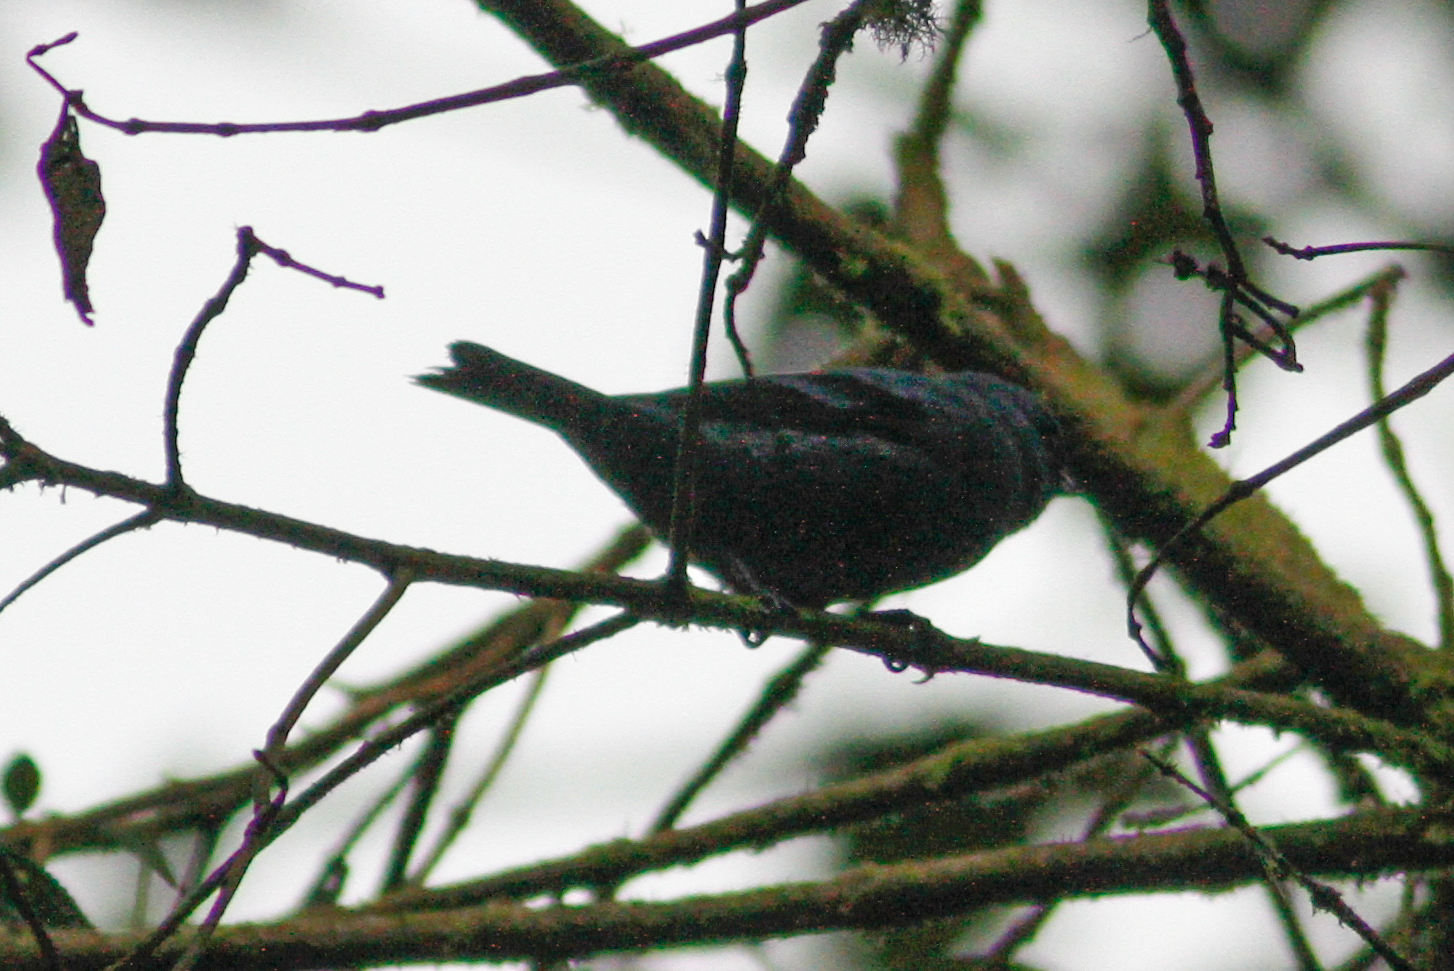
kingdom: Animalia
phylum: Chordata
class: Aves
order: Passeriformes
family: Thraupidae
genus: Tangara
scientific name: Tangara vassorii
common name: Blue-and-black tanager
